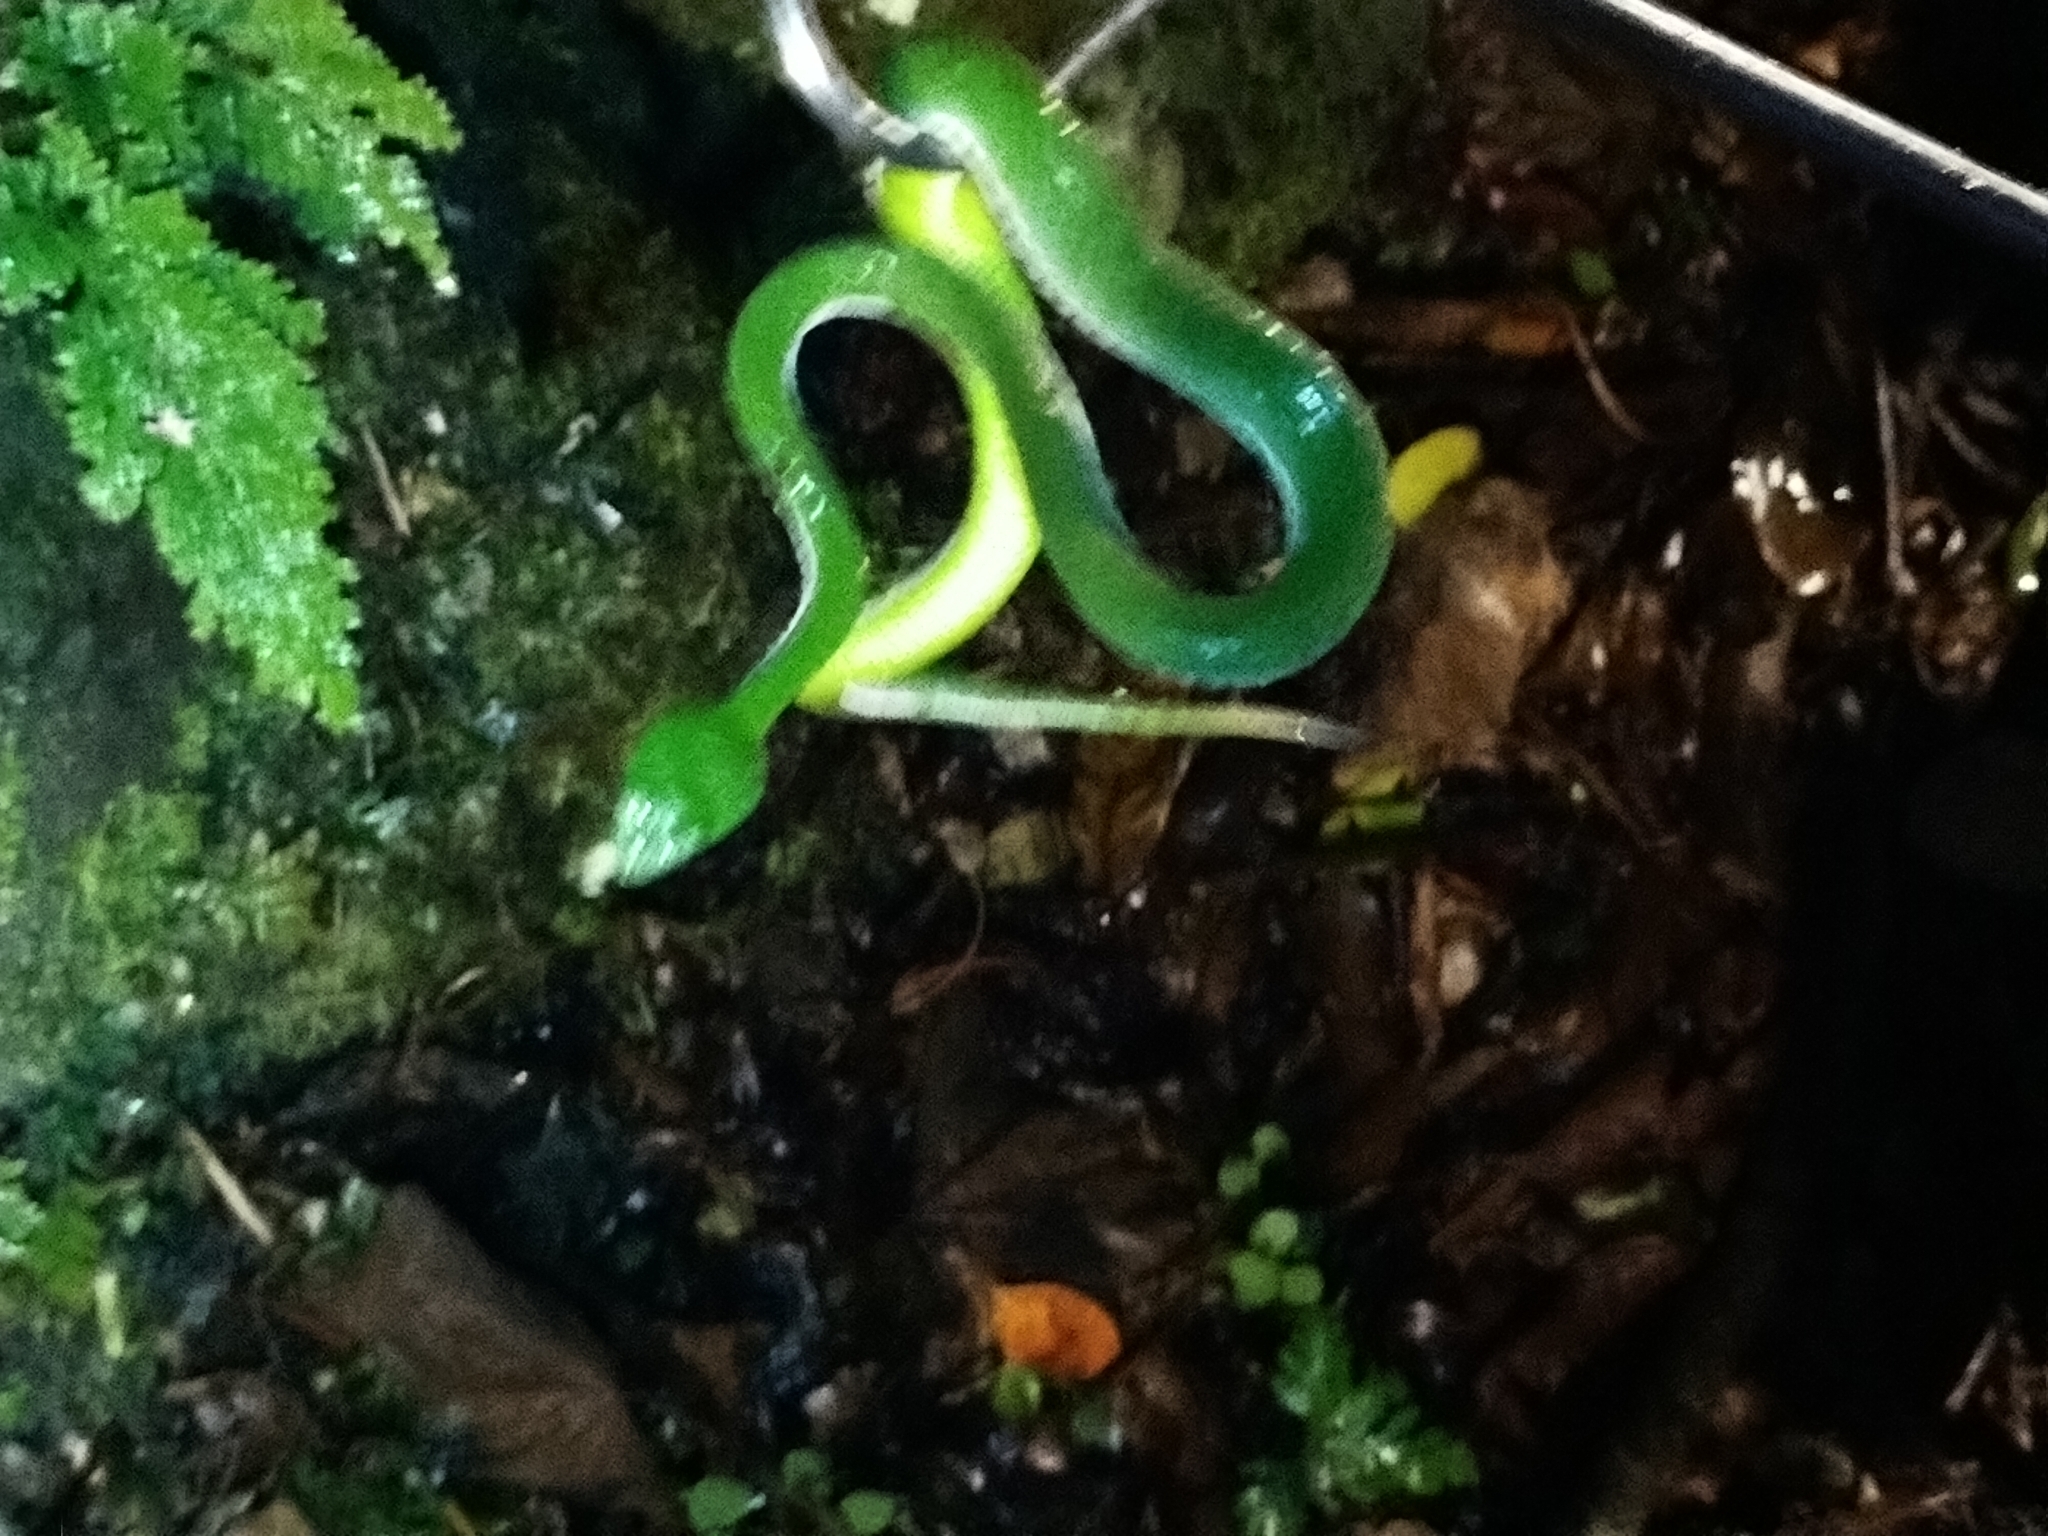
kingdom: Animalia
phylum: Chordata
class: Squamata
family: Viperidae
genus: Trimeresurus
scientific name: Trimeresurus stejnegeri
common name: Chen’s bamboo pit viper
